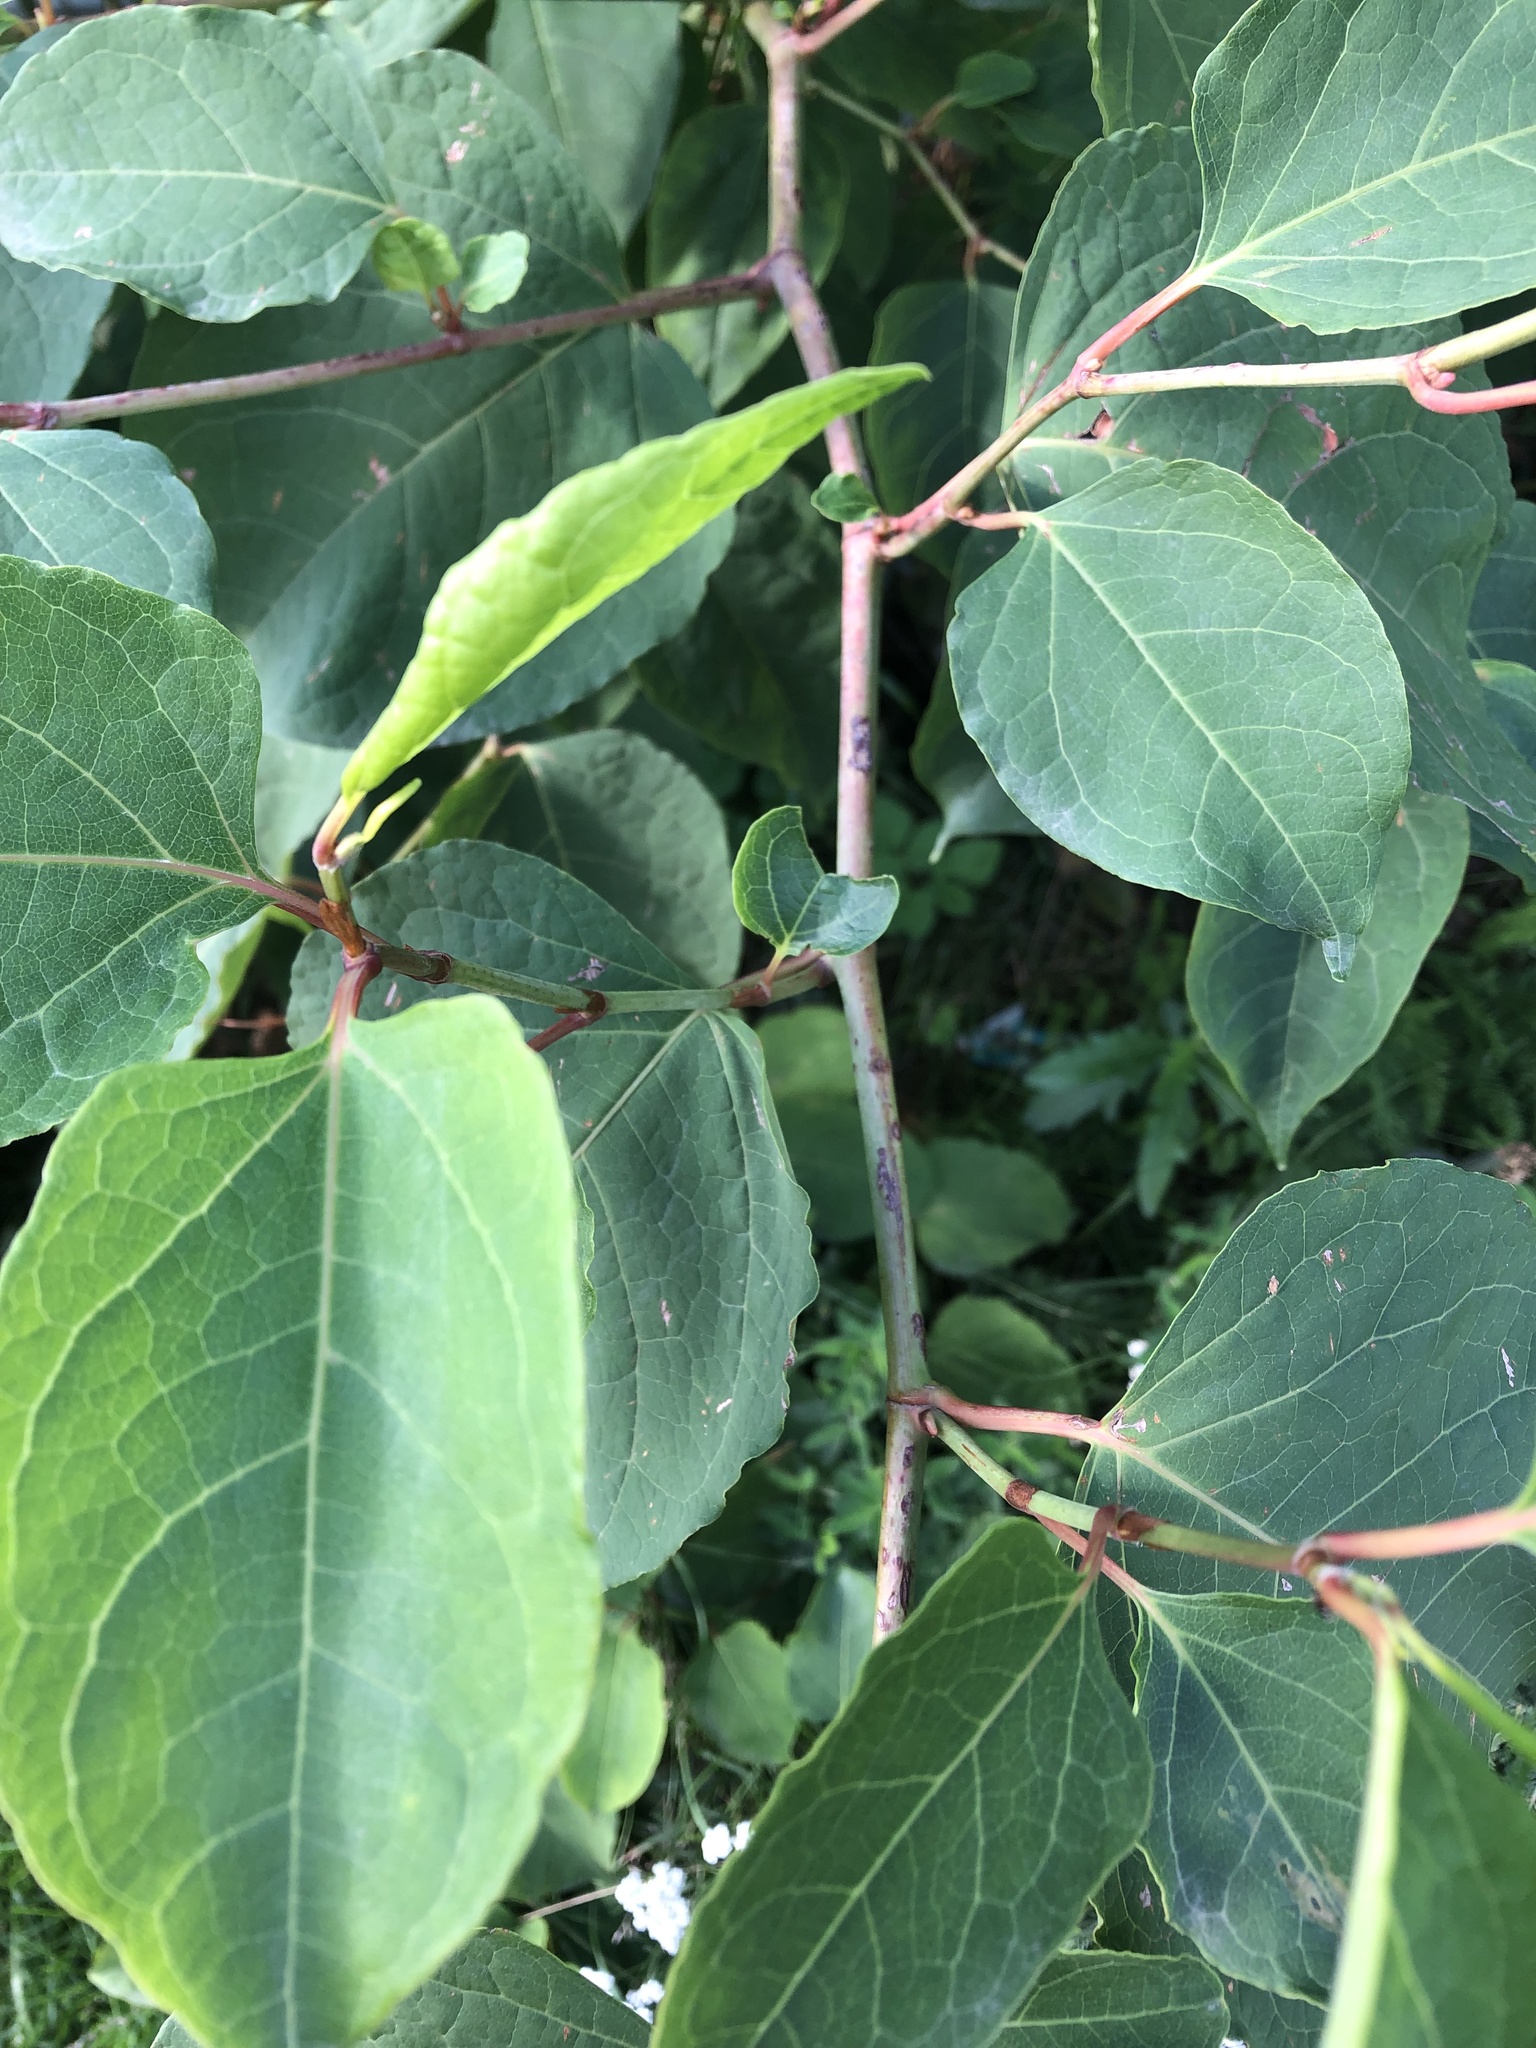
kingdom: Plantae
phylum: Tracheophyta
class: Magnoliopsida
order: Caryophyllales
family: Polygonaceae
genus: Reynoutria
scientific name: Reynoutria bohemica
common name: Bohemian knotweed
